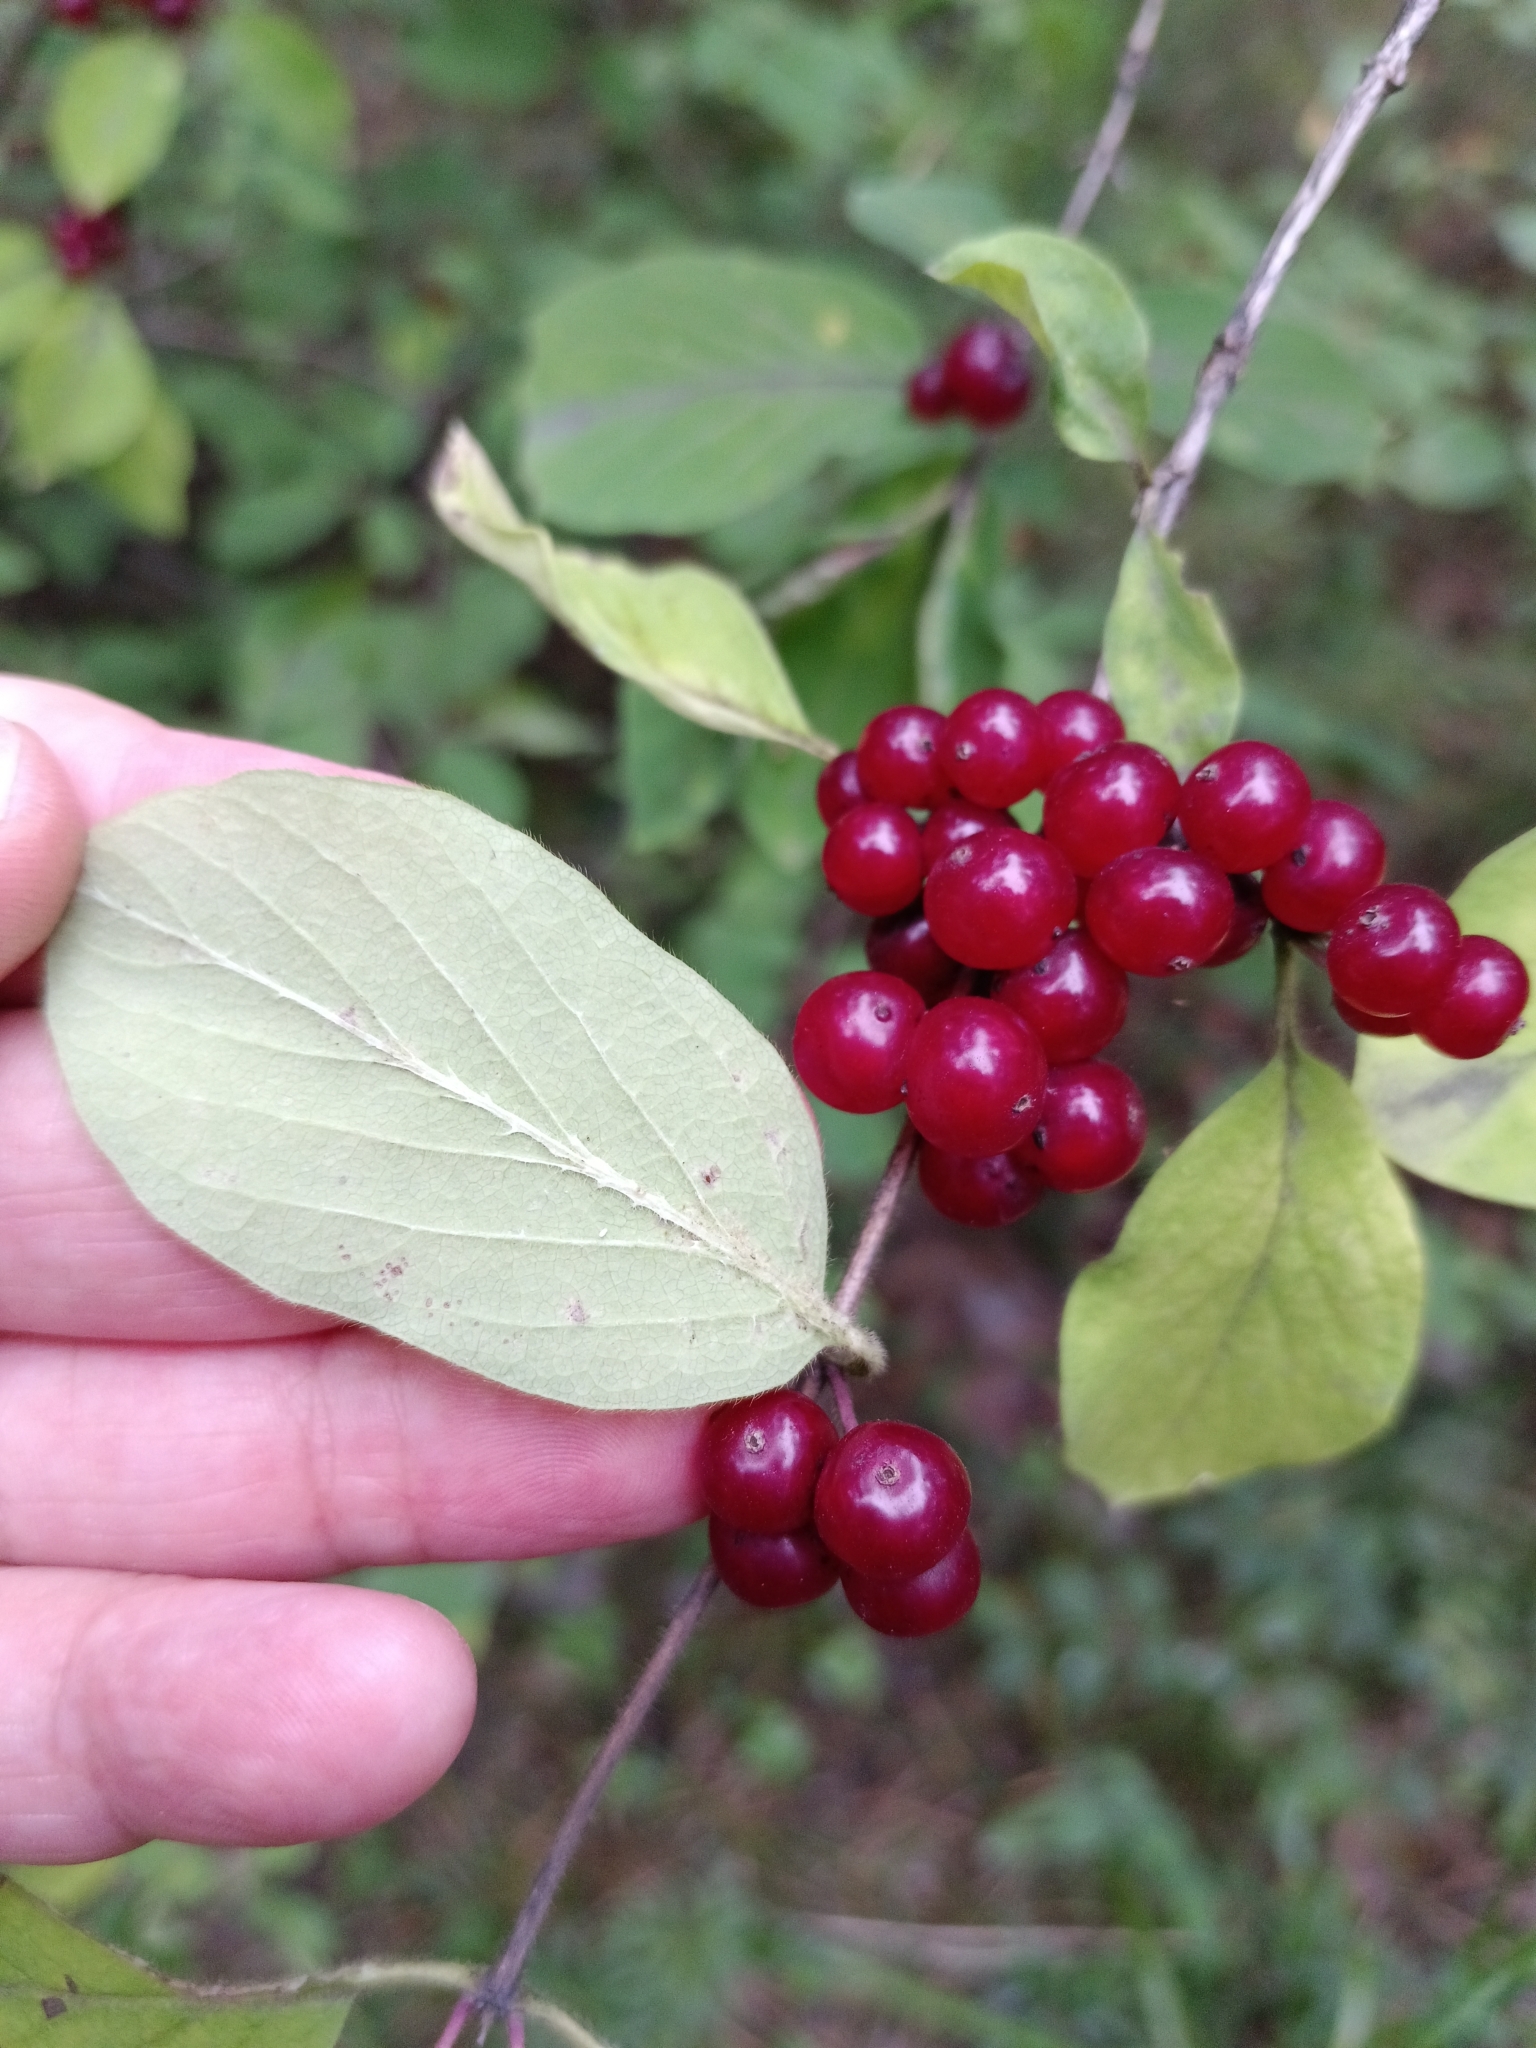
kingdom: Plantae
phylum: Tracheophyta
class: Magnoliopsida
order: Dipsacales
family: Caprifoliaceae
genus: Lonicera
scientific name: Lonicera xylosteum
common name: Fly honeysuckle
